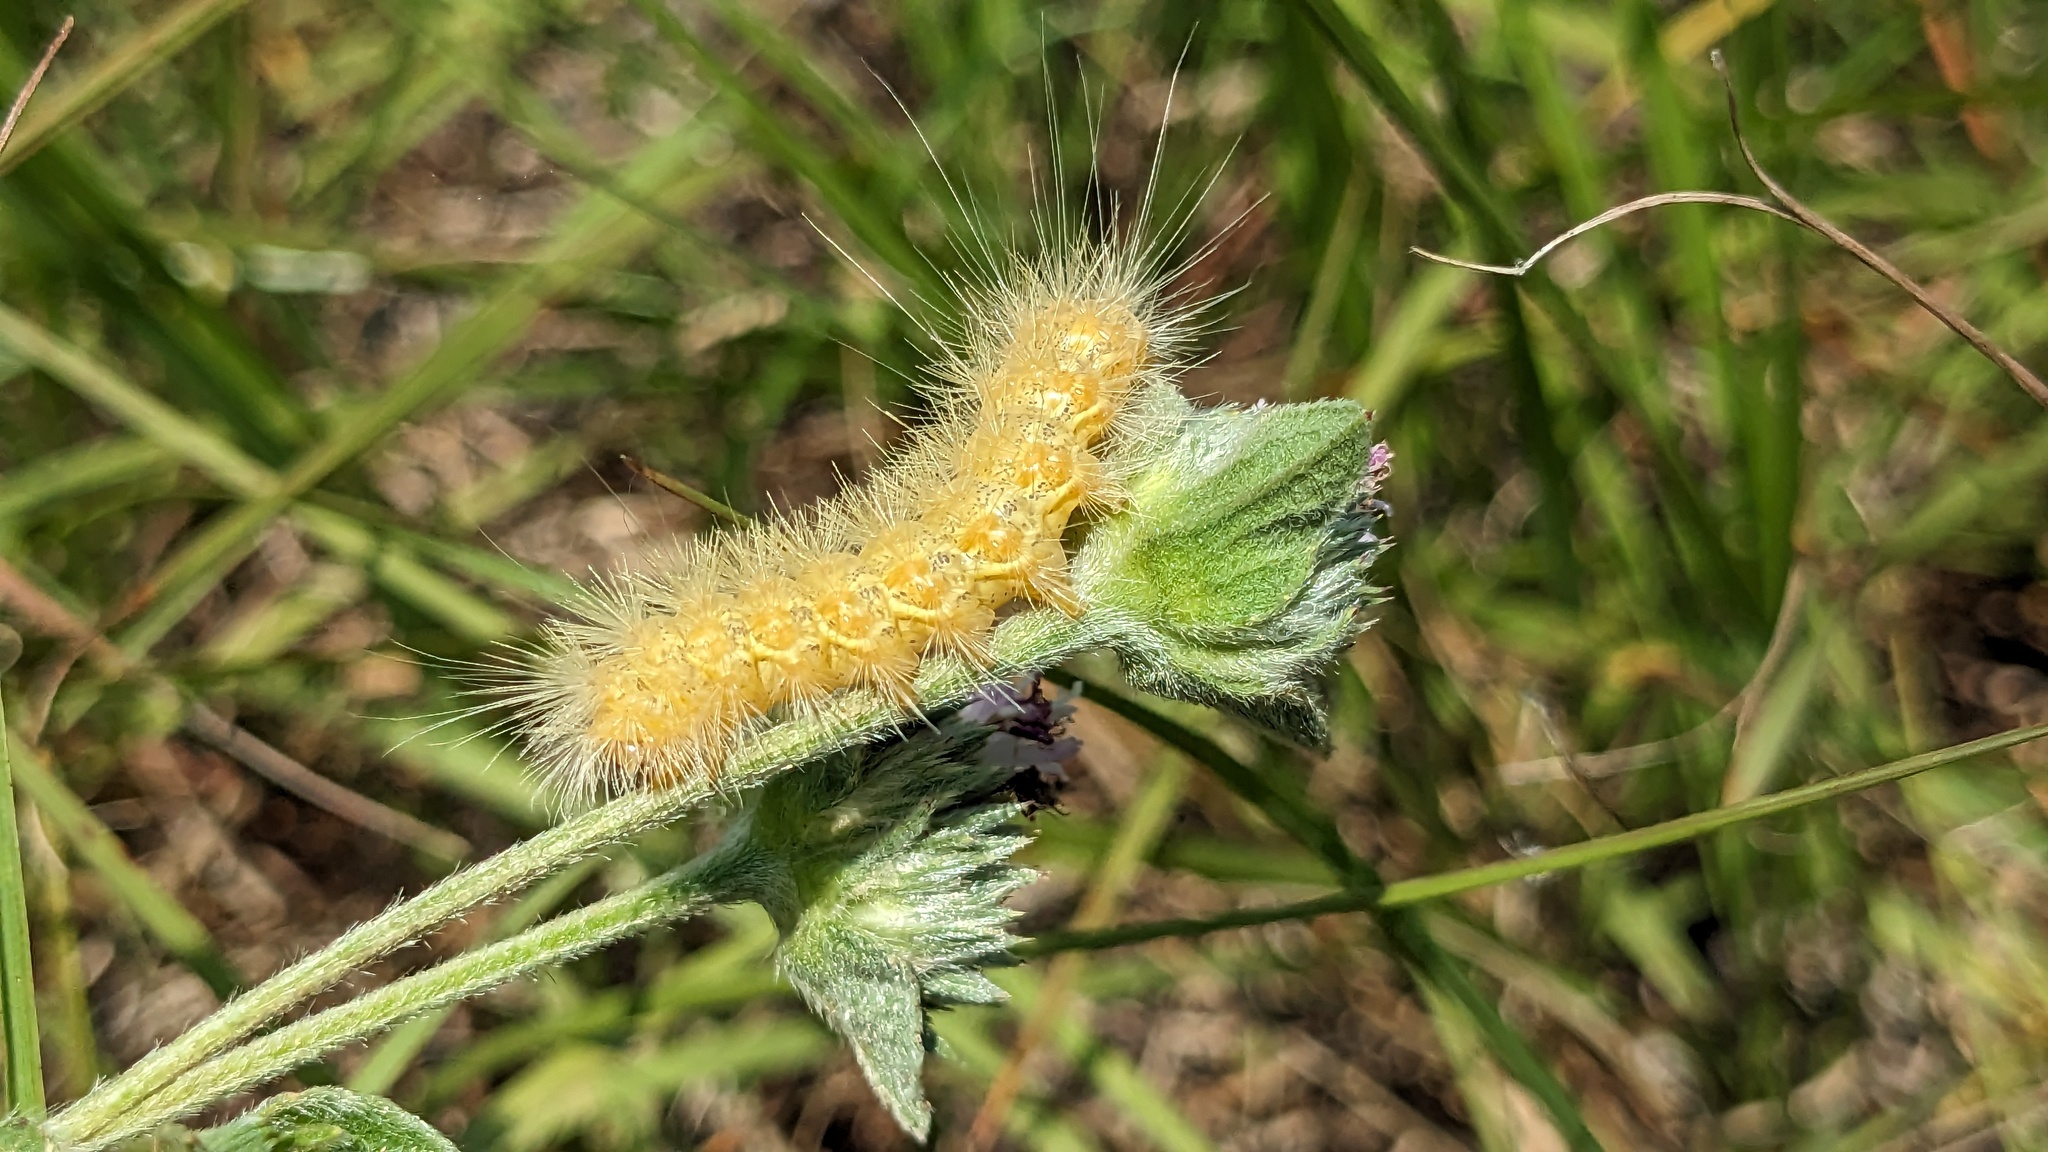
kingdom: Animalia
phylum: Arthropoda
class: Insecta
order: Lepidoptera
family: Erebidae
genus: Estigmene
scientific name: Estigmene acrea
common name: Salt marsh moth
